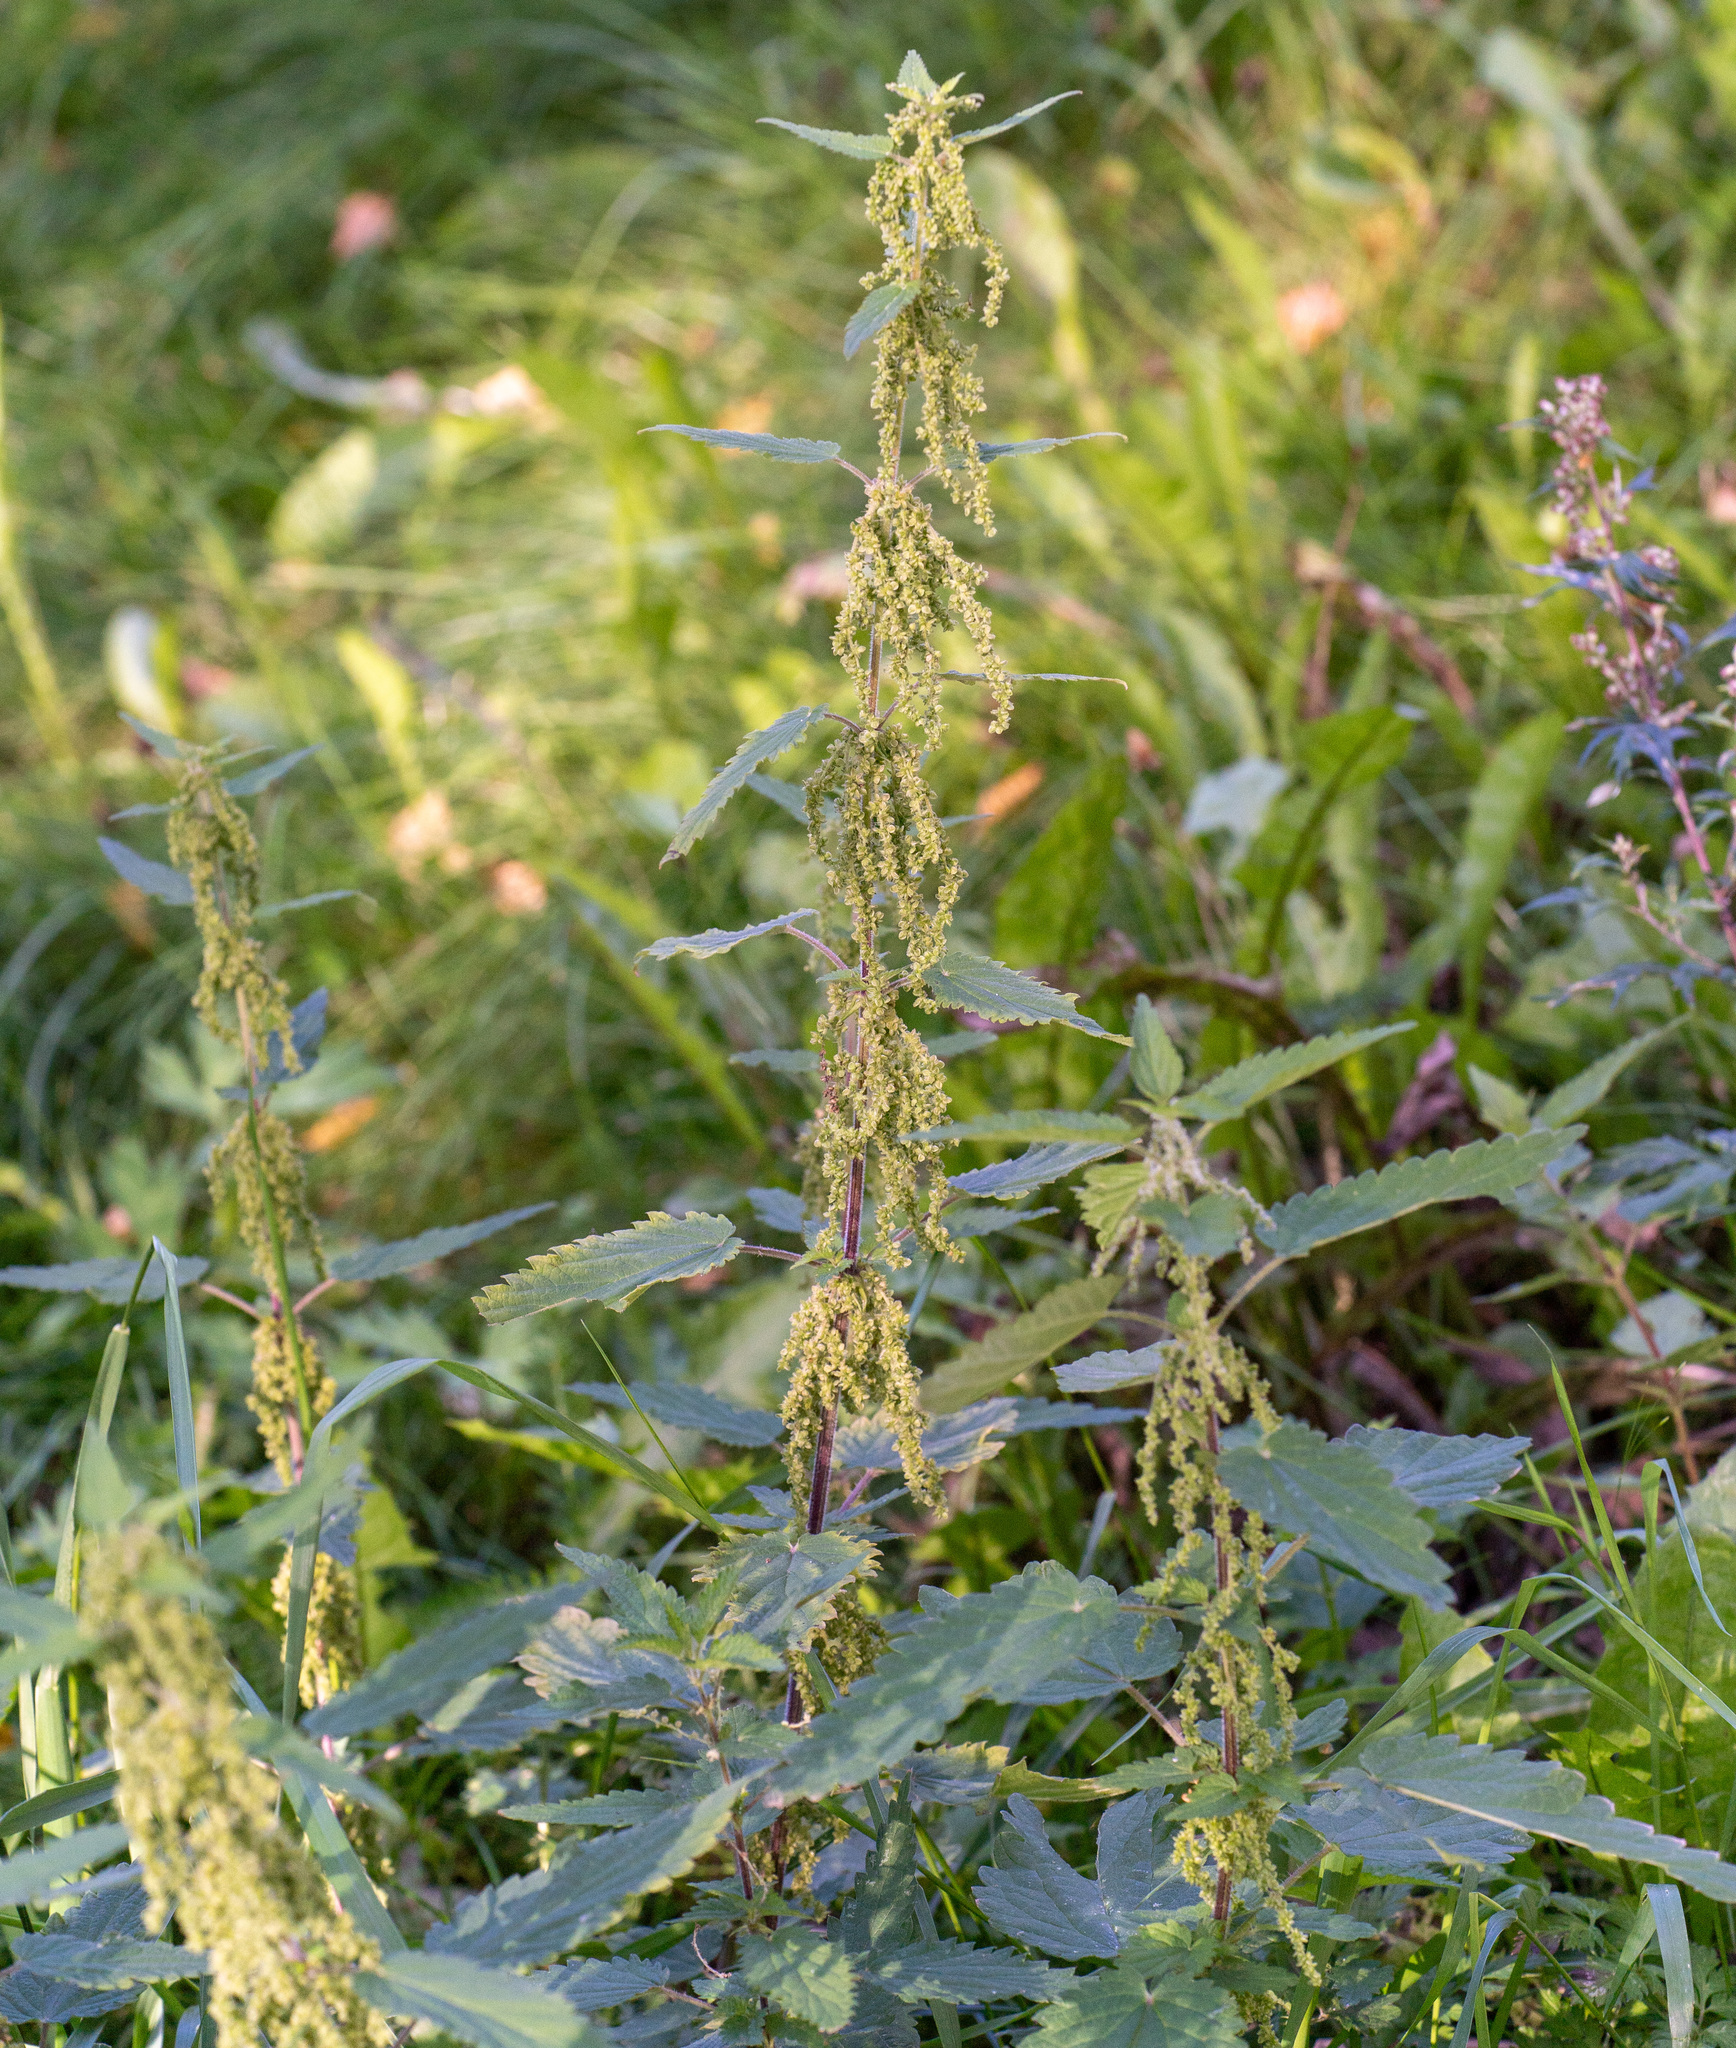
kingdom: Plantae
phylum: Tracheophyta
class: Magnoliopsida
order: Rosales
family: Urticaceae
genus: Urtica
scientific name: Urtica dioica
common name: Common nettle
